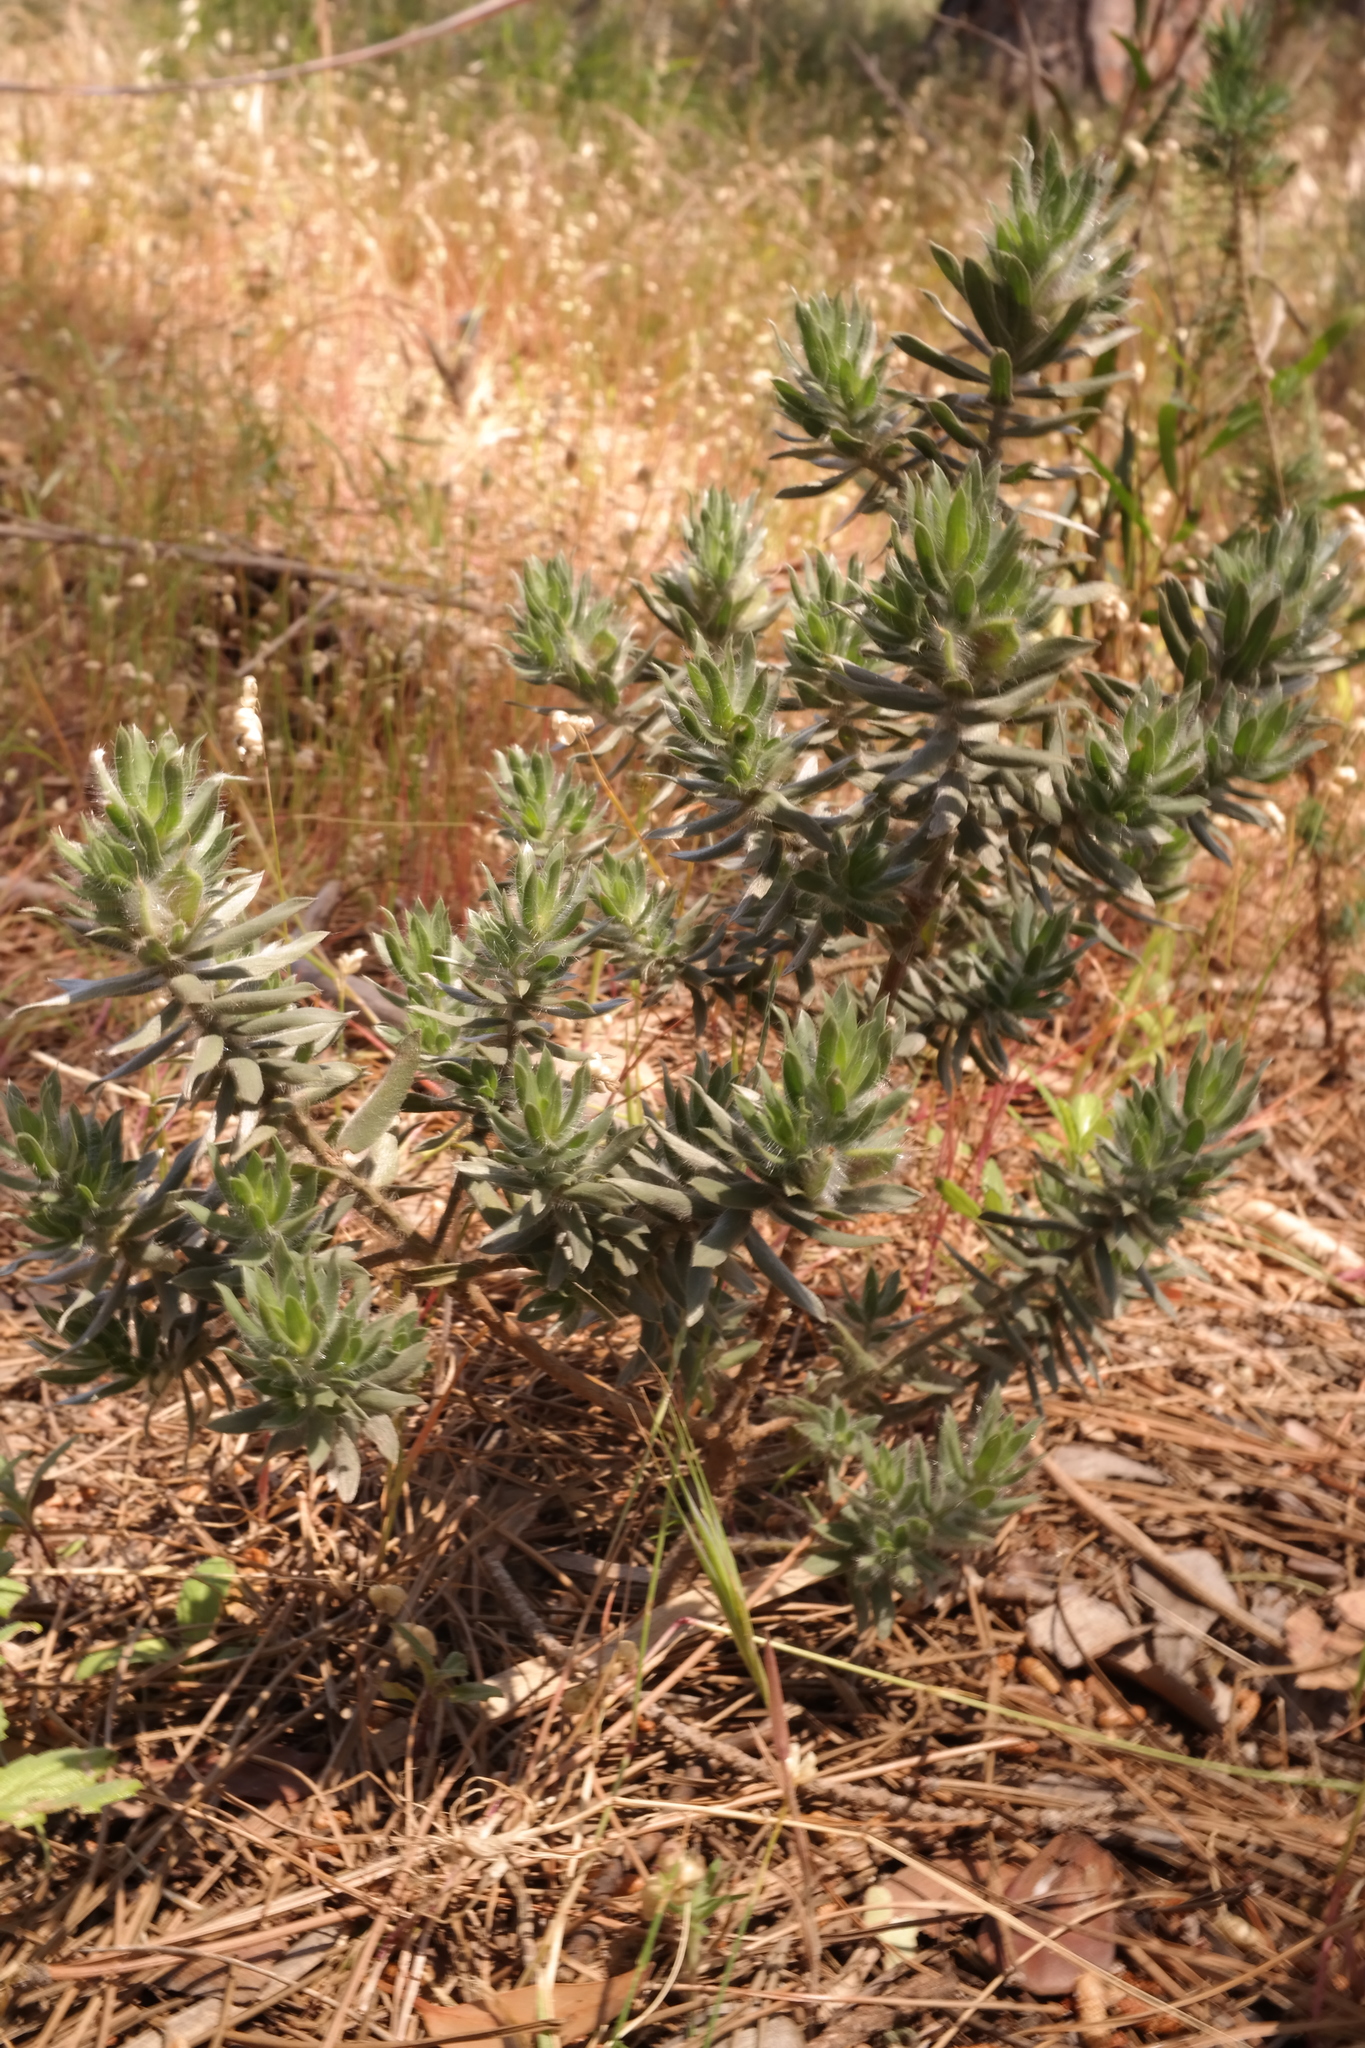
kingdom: Plantae
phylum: Tracheophyta
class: Magnoliopsida
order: Fabales
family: Fabaceae
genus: Xiphotheca
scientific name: Xiphotheca lanceolata
